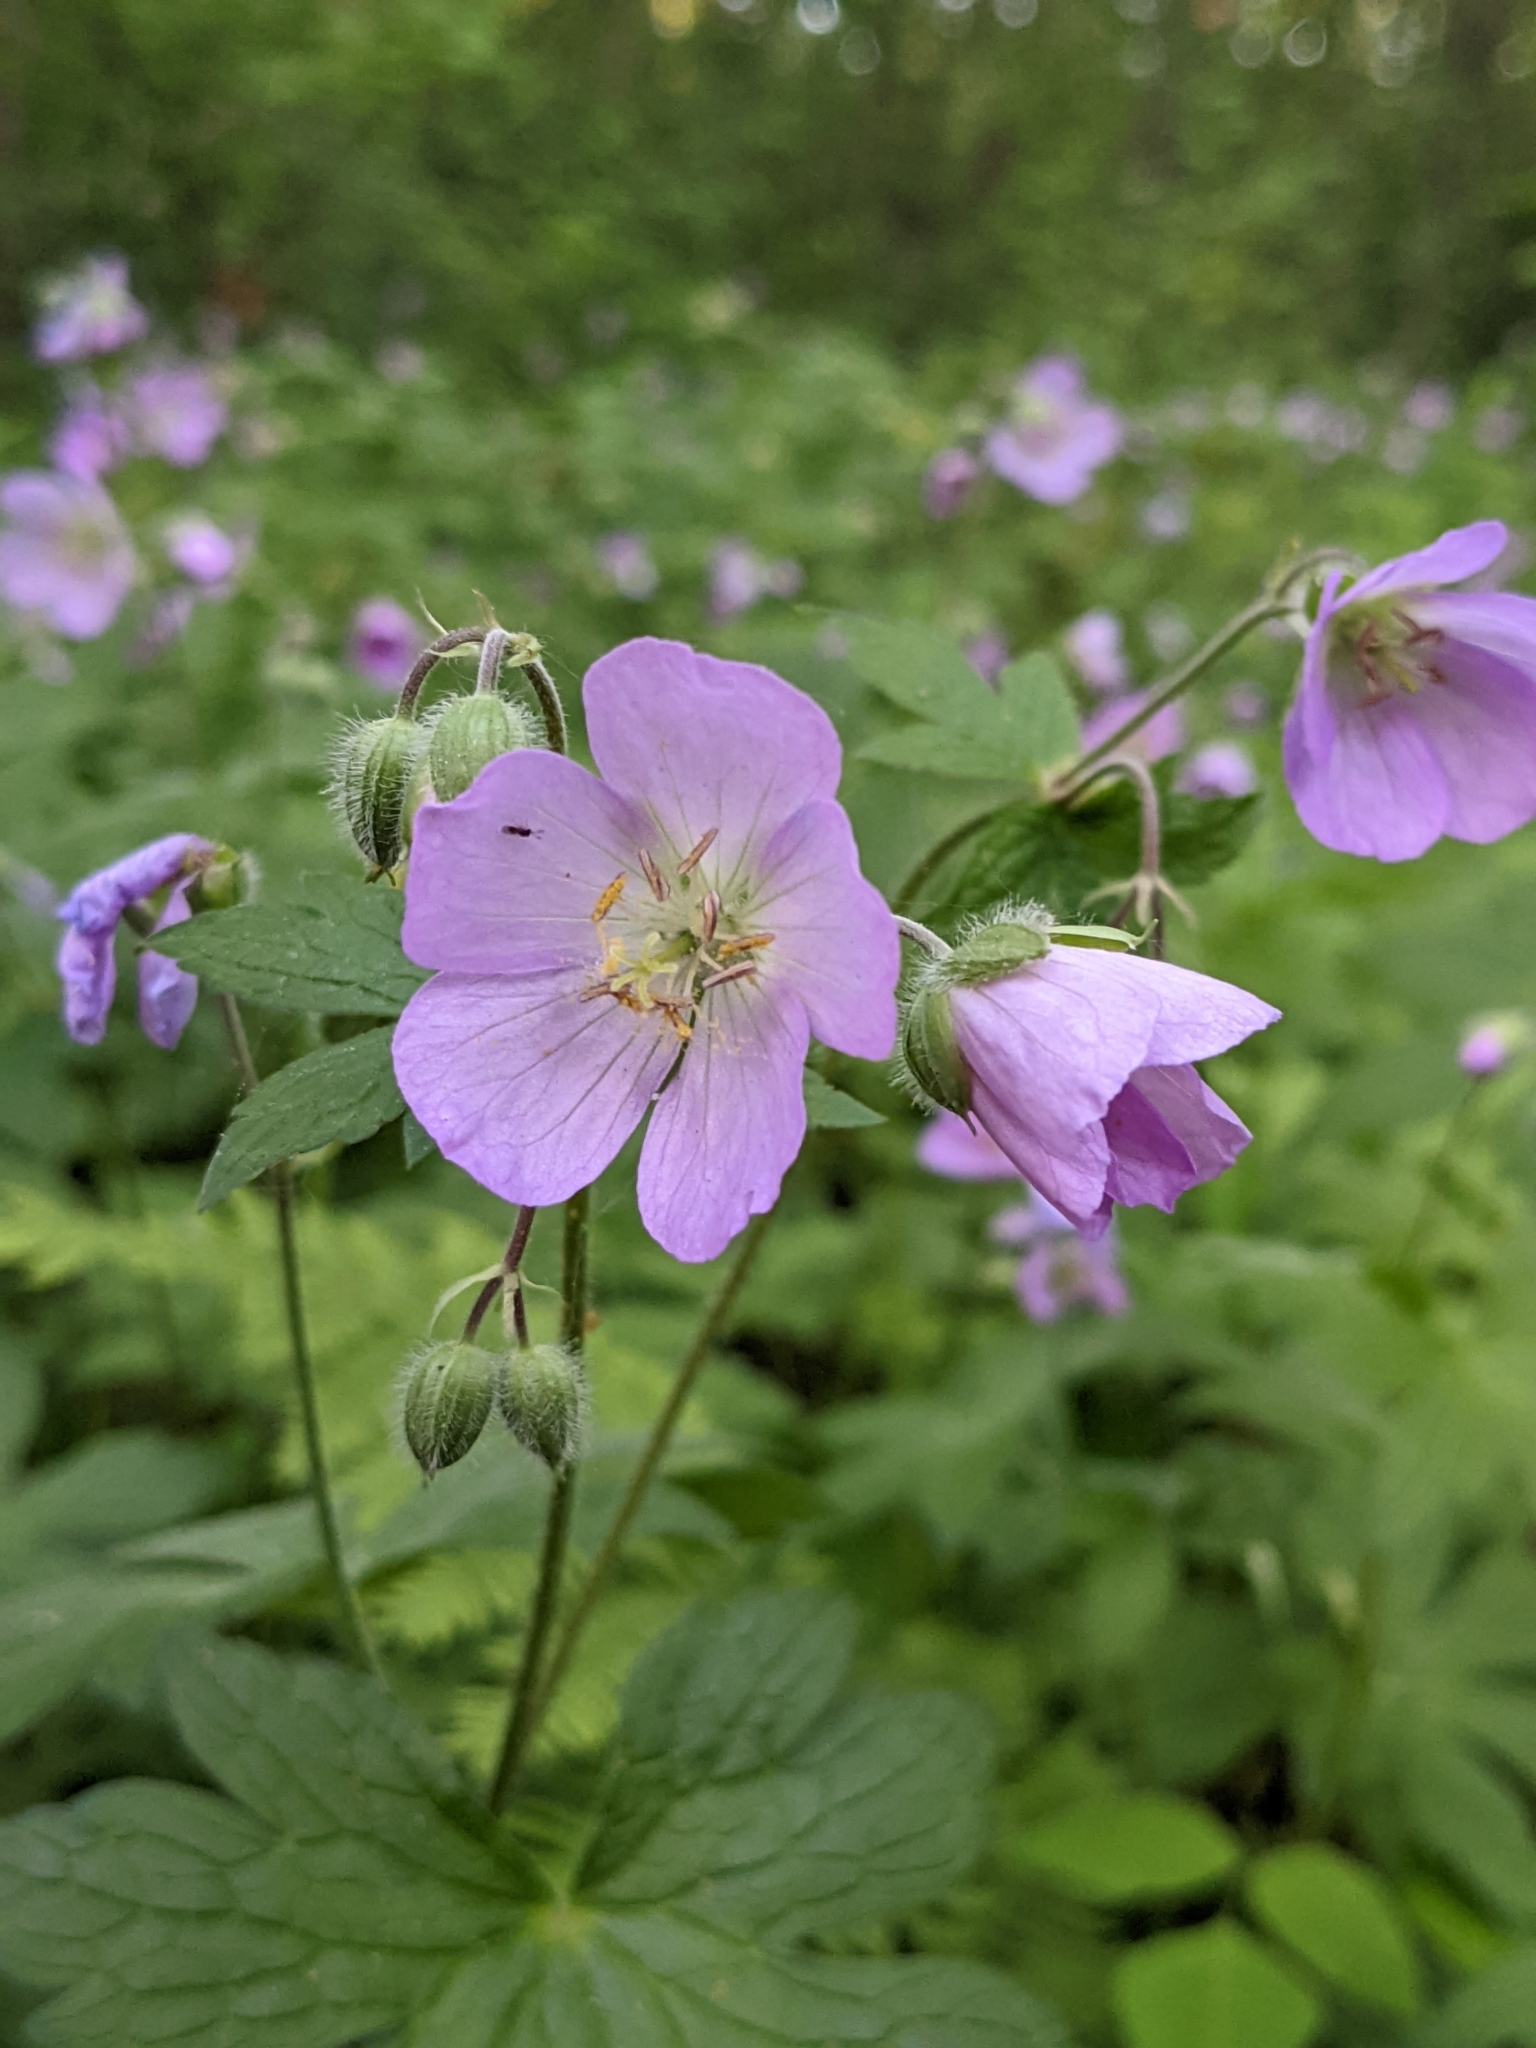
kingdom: Plantae
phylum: Tracheophyta
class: Magnoliopsida
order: Geraniales
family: Geraniaceae
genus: Geranium
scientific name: Geranium maculatum
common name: Spotted geranium
